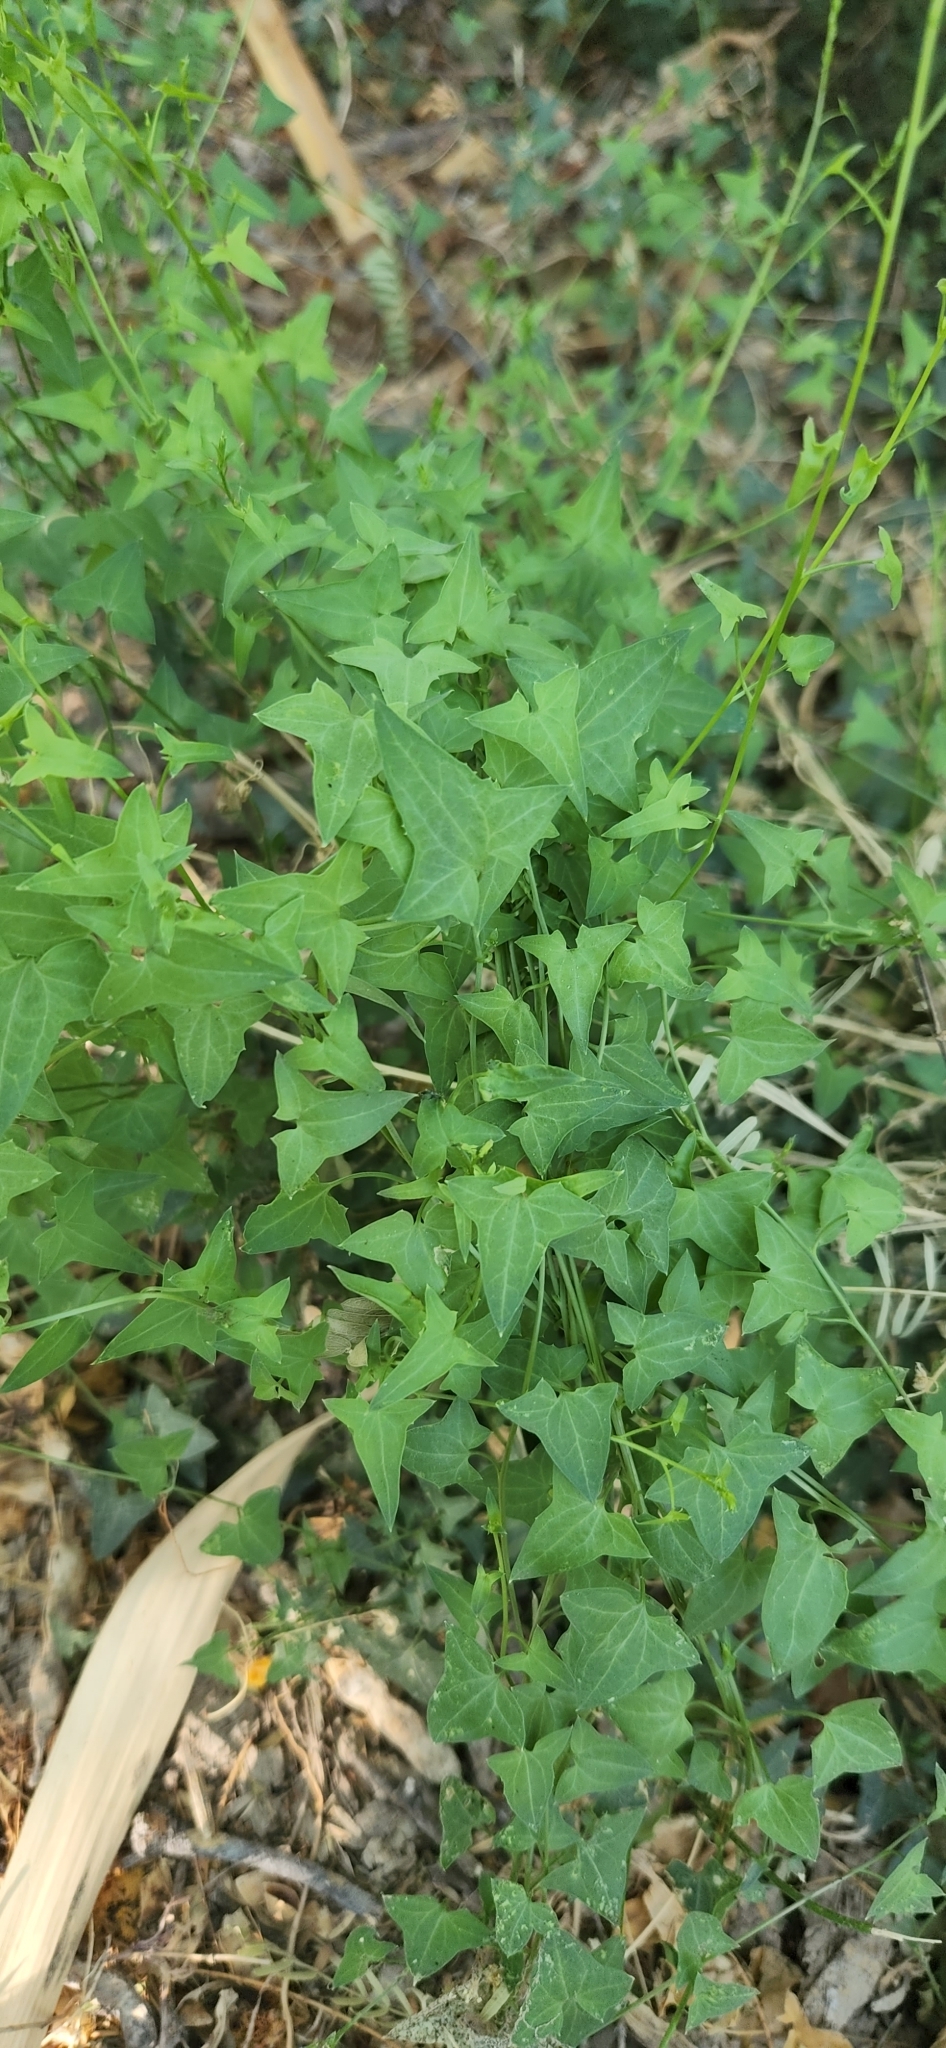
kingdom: Plantae
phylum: Tracheophyta
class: Magnoliopsida
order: Lamiales
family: Plantaginaceae
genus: Maurandella
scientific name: Maurandella antirrhiniflora
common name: Violet twining-snapdragon
